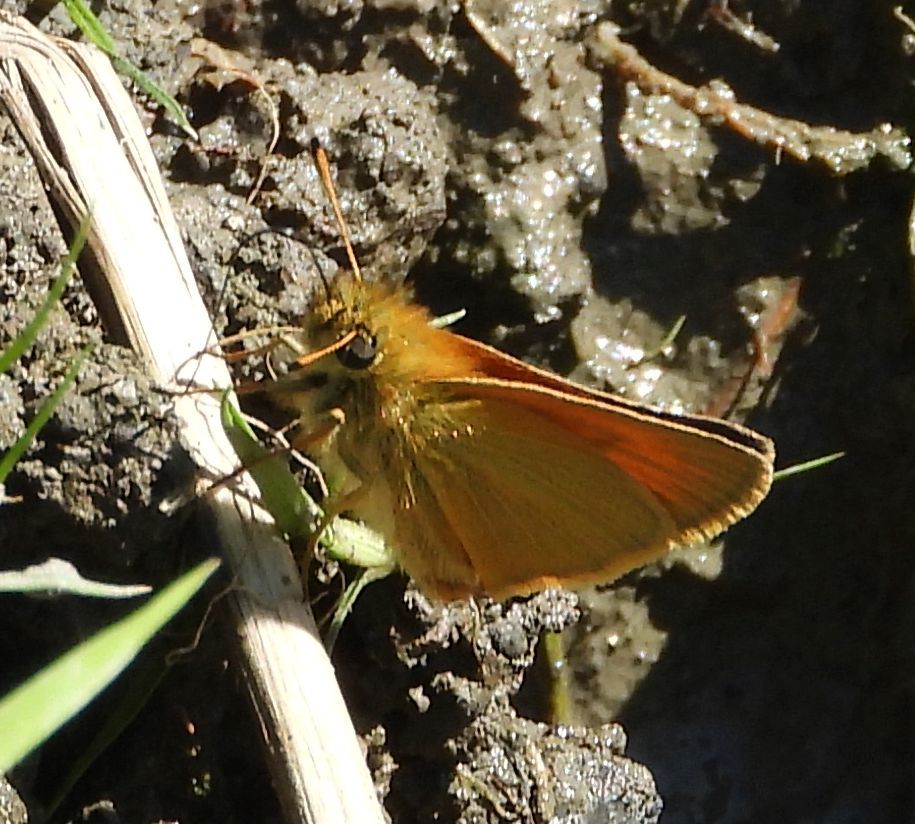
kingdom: Animalia
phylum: Arthropoda
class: Insecta
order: Lepidoptera
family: Hesperiidae
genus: Thymelicus
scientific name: Thymelicus lineola
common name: Essex skipper
